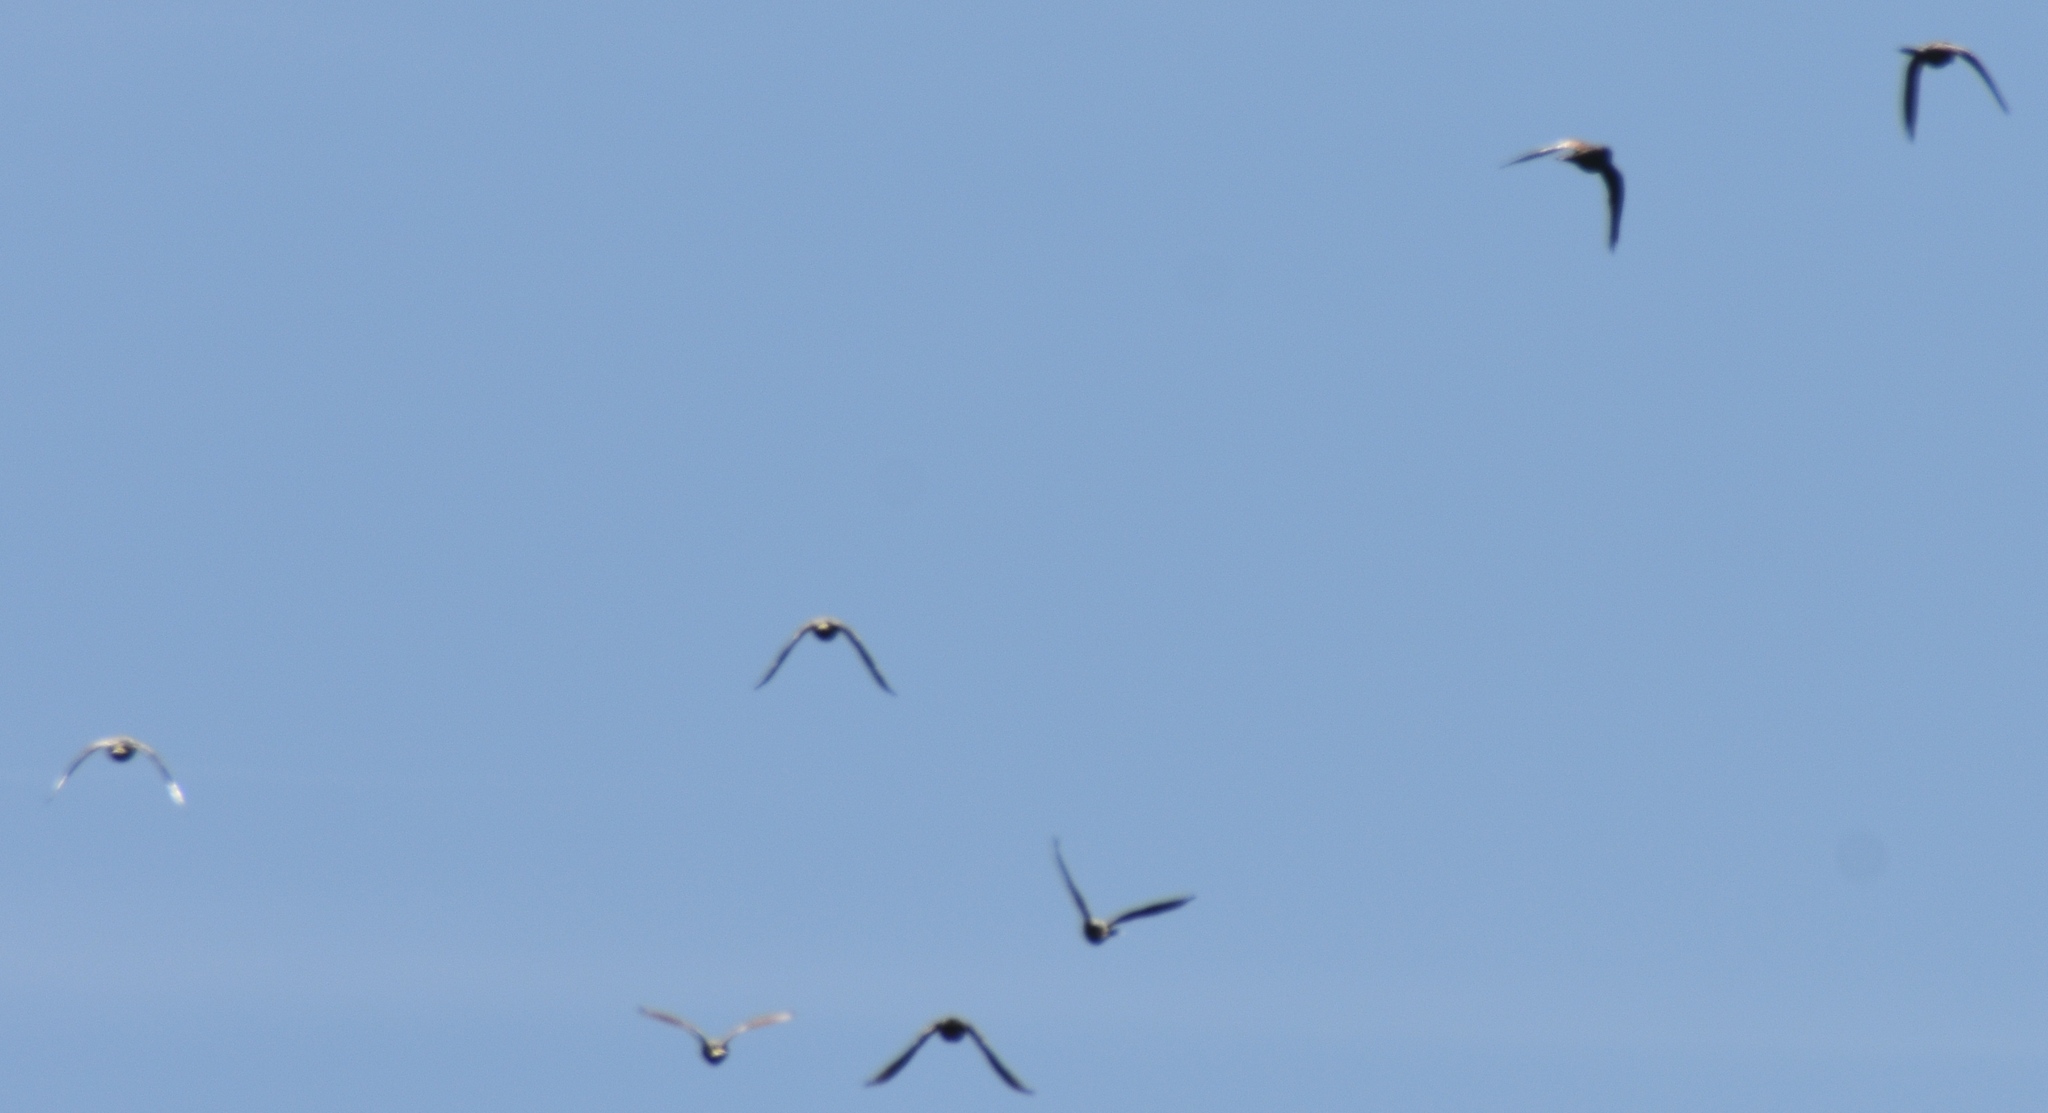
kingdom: Animalia
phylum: Chordata
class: Aves
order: Psittaciformes
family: Psittacidae
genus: Aratinga
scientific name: Aratinga erythrogenys
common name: Red-masked parakeet
